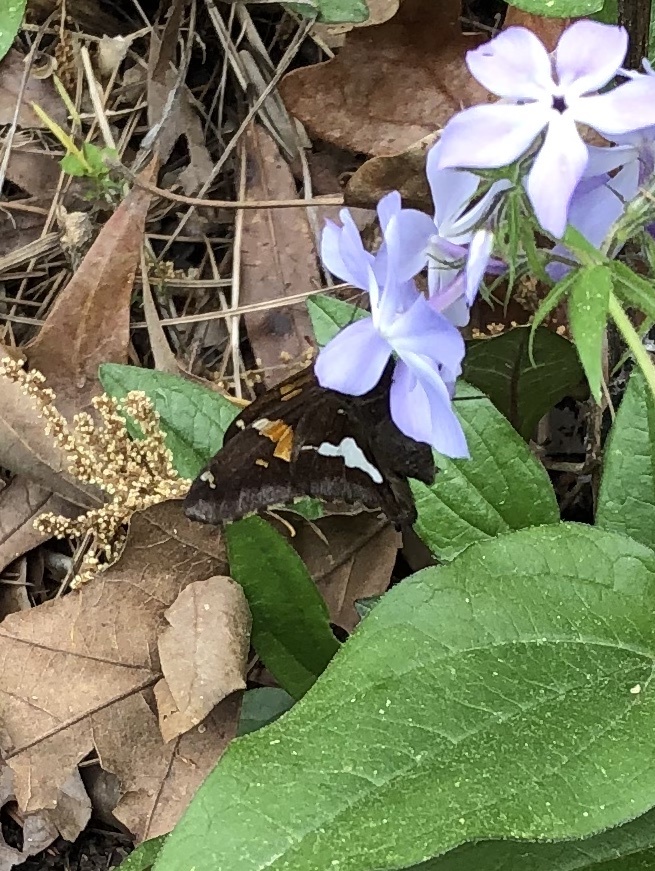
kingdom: Animalia
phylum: Arthropoda
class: Insecta
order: Lepidoptera
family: Hesperiidae
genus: Epargyreus
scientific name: Epargyreus clarus
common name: Silver-spotted skipper
